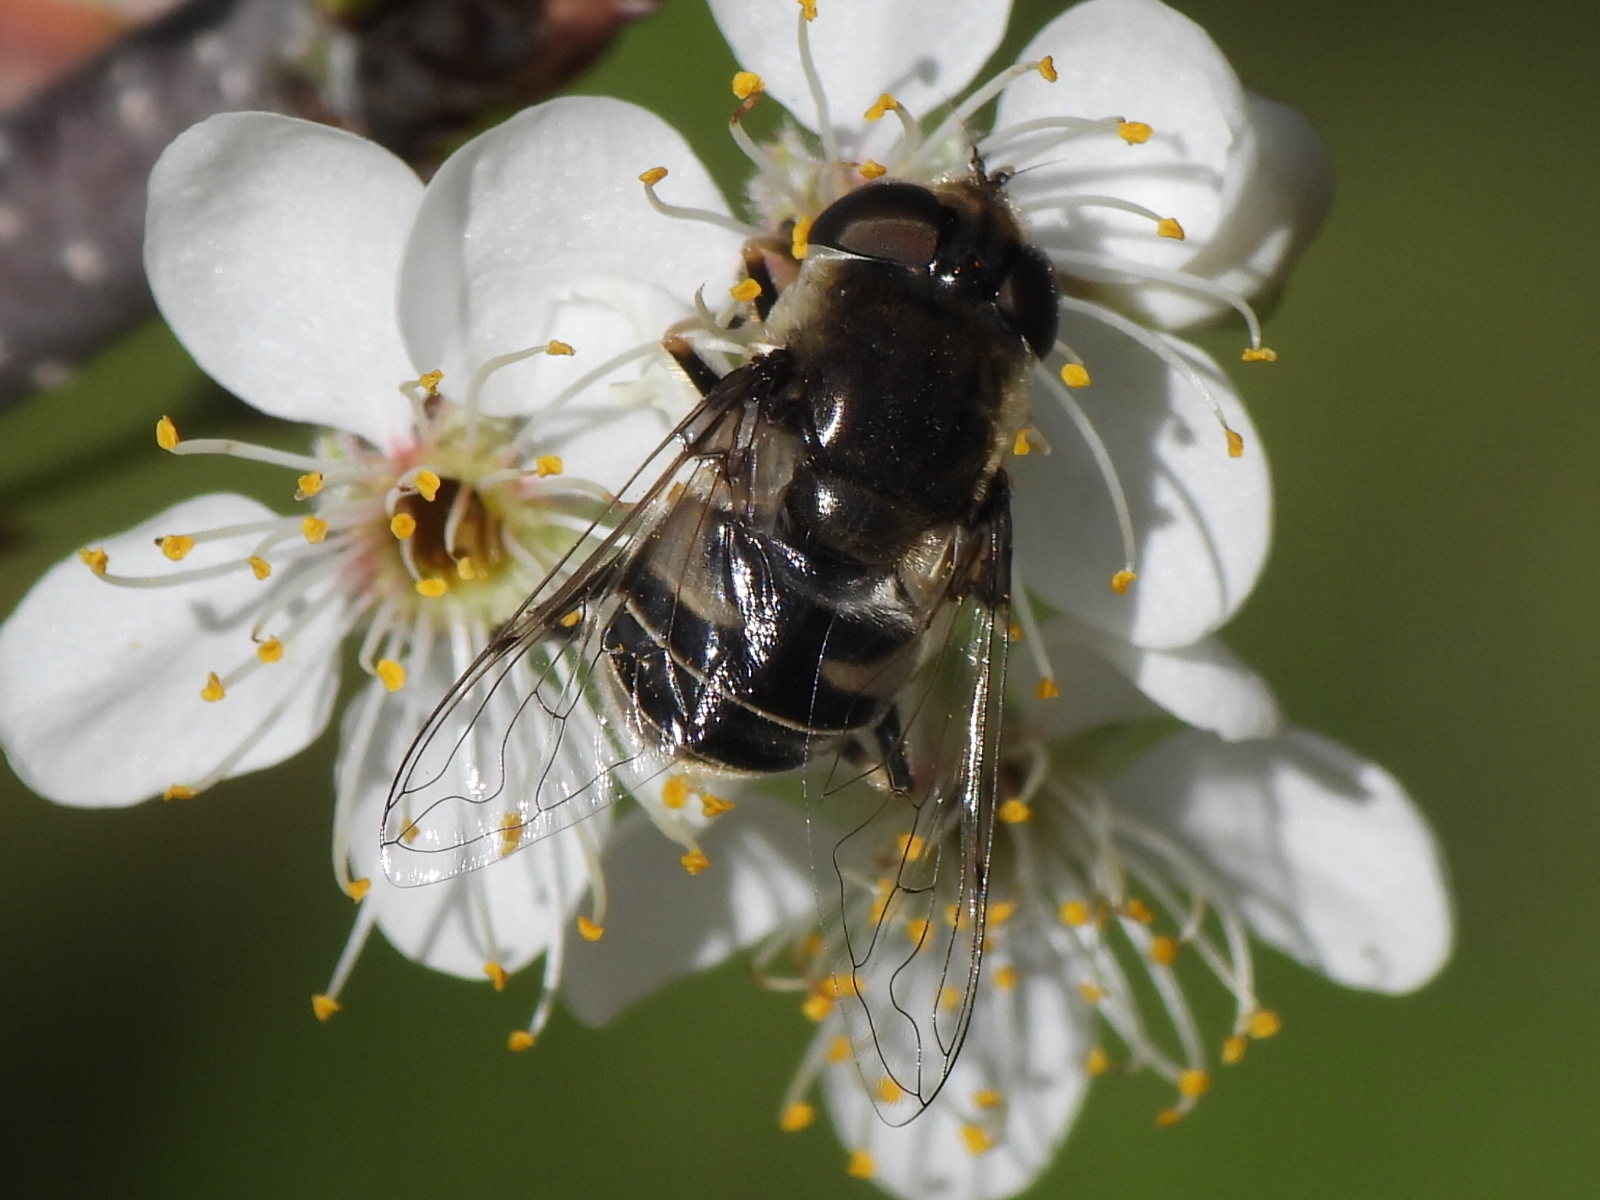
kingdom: Animalia
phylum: Arthropoda
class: Insecta
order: Diptera
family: Syrphidae
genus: Eristalis
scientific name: Eristalis dimidiata
